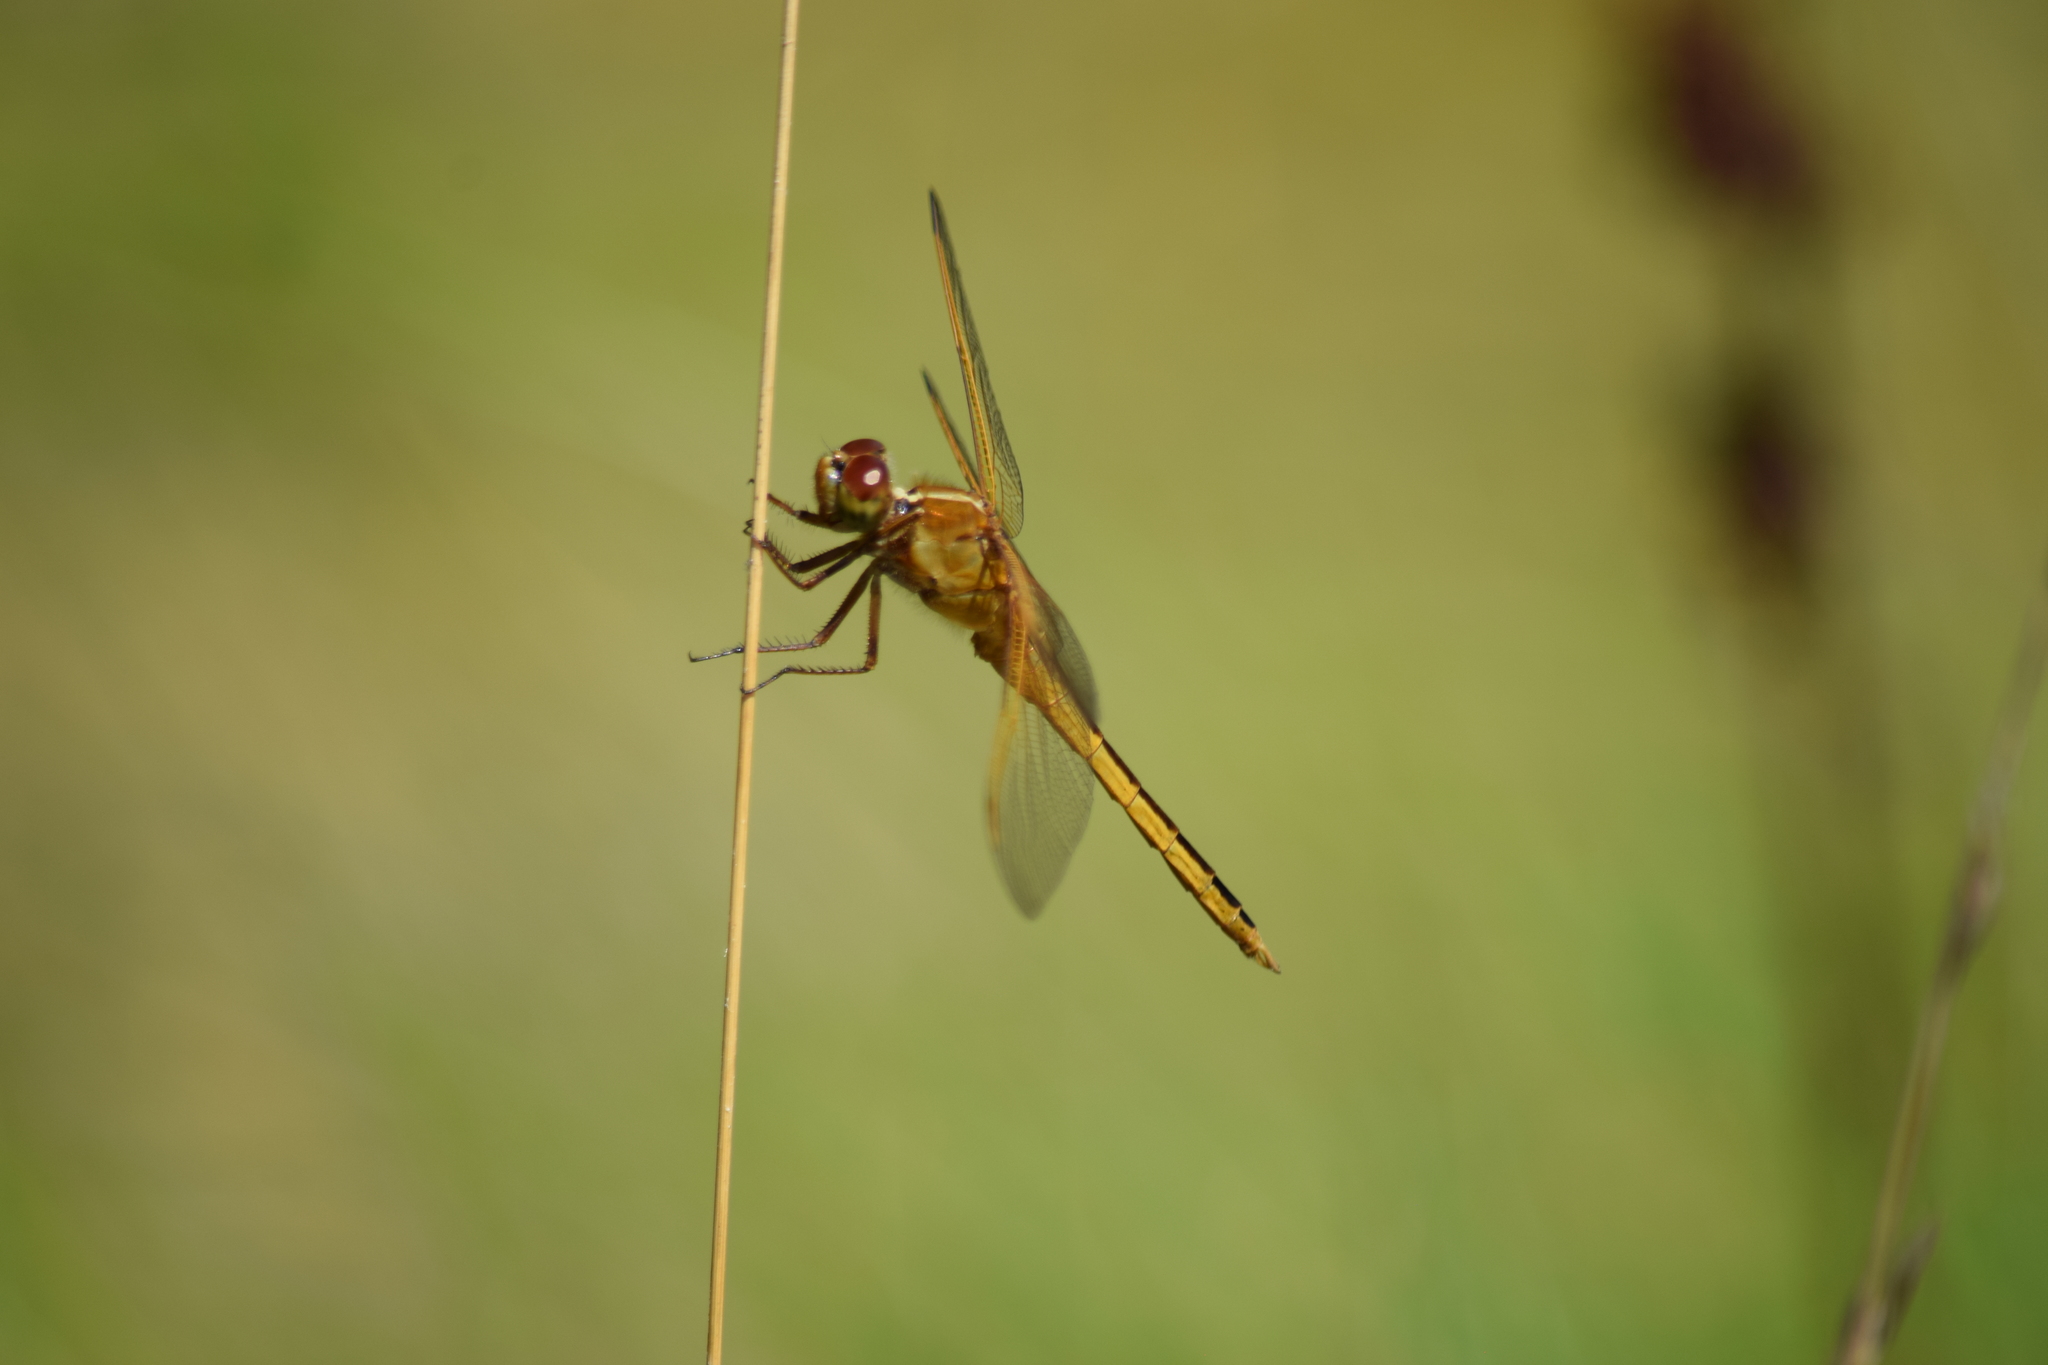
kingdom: Animalia
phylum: Arthropoda
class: Insecta
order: Odonata
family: Libellulidae
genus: Libellula
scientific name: Libellula needhami
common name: Needham's skimmer
